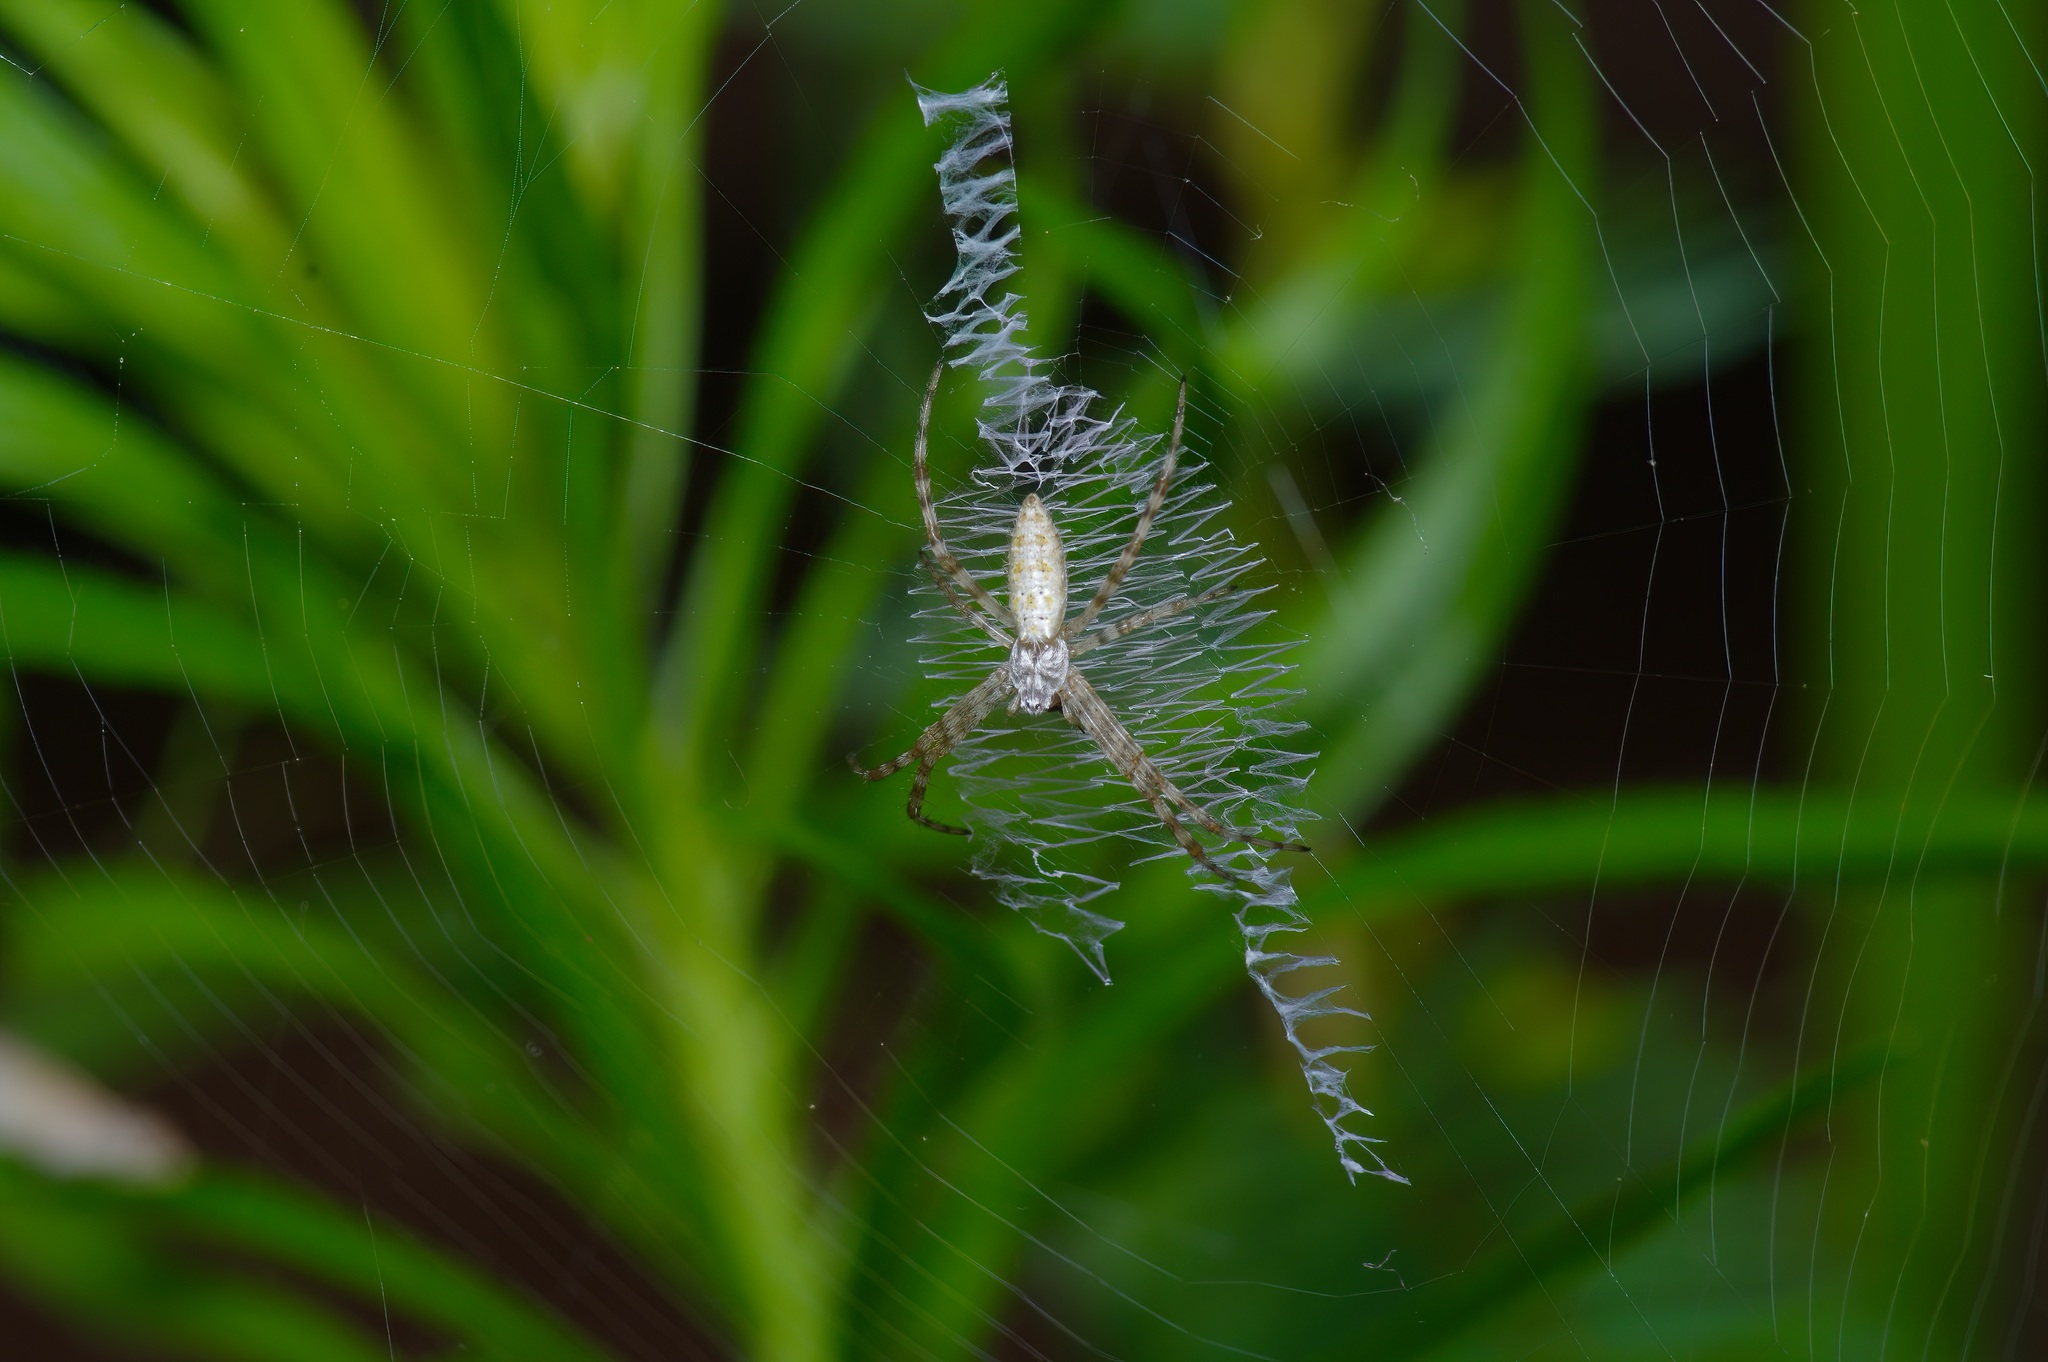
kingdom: Animalia
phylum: Arthropoda
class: Arachnida
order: Araneae
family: Araneidae
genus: Argiope
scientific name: Argiope aurantia
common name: Orb weavers
